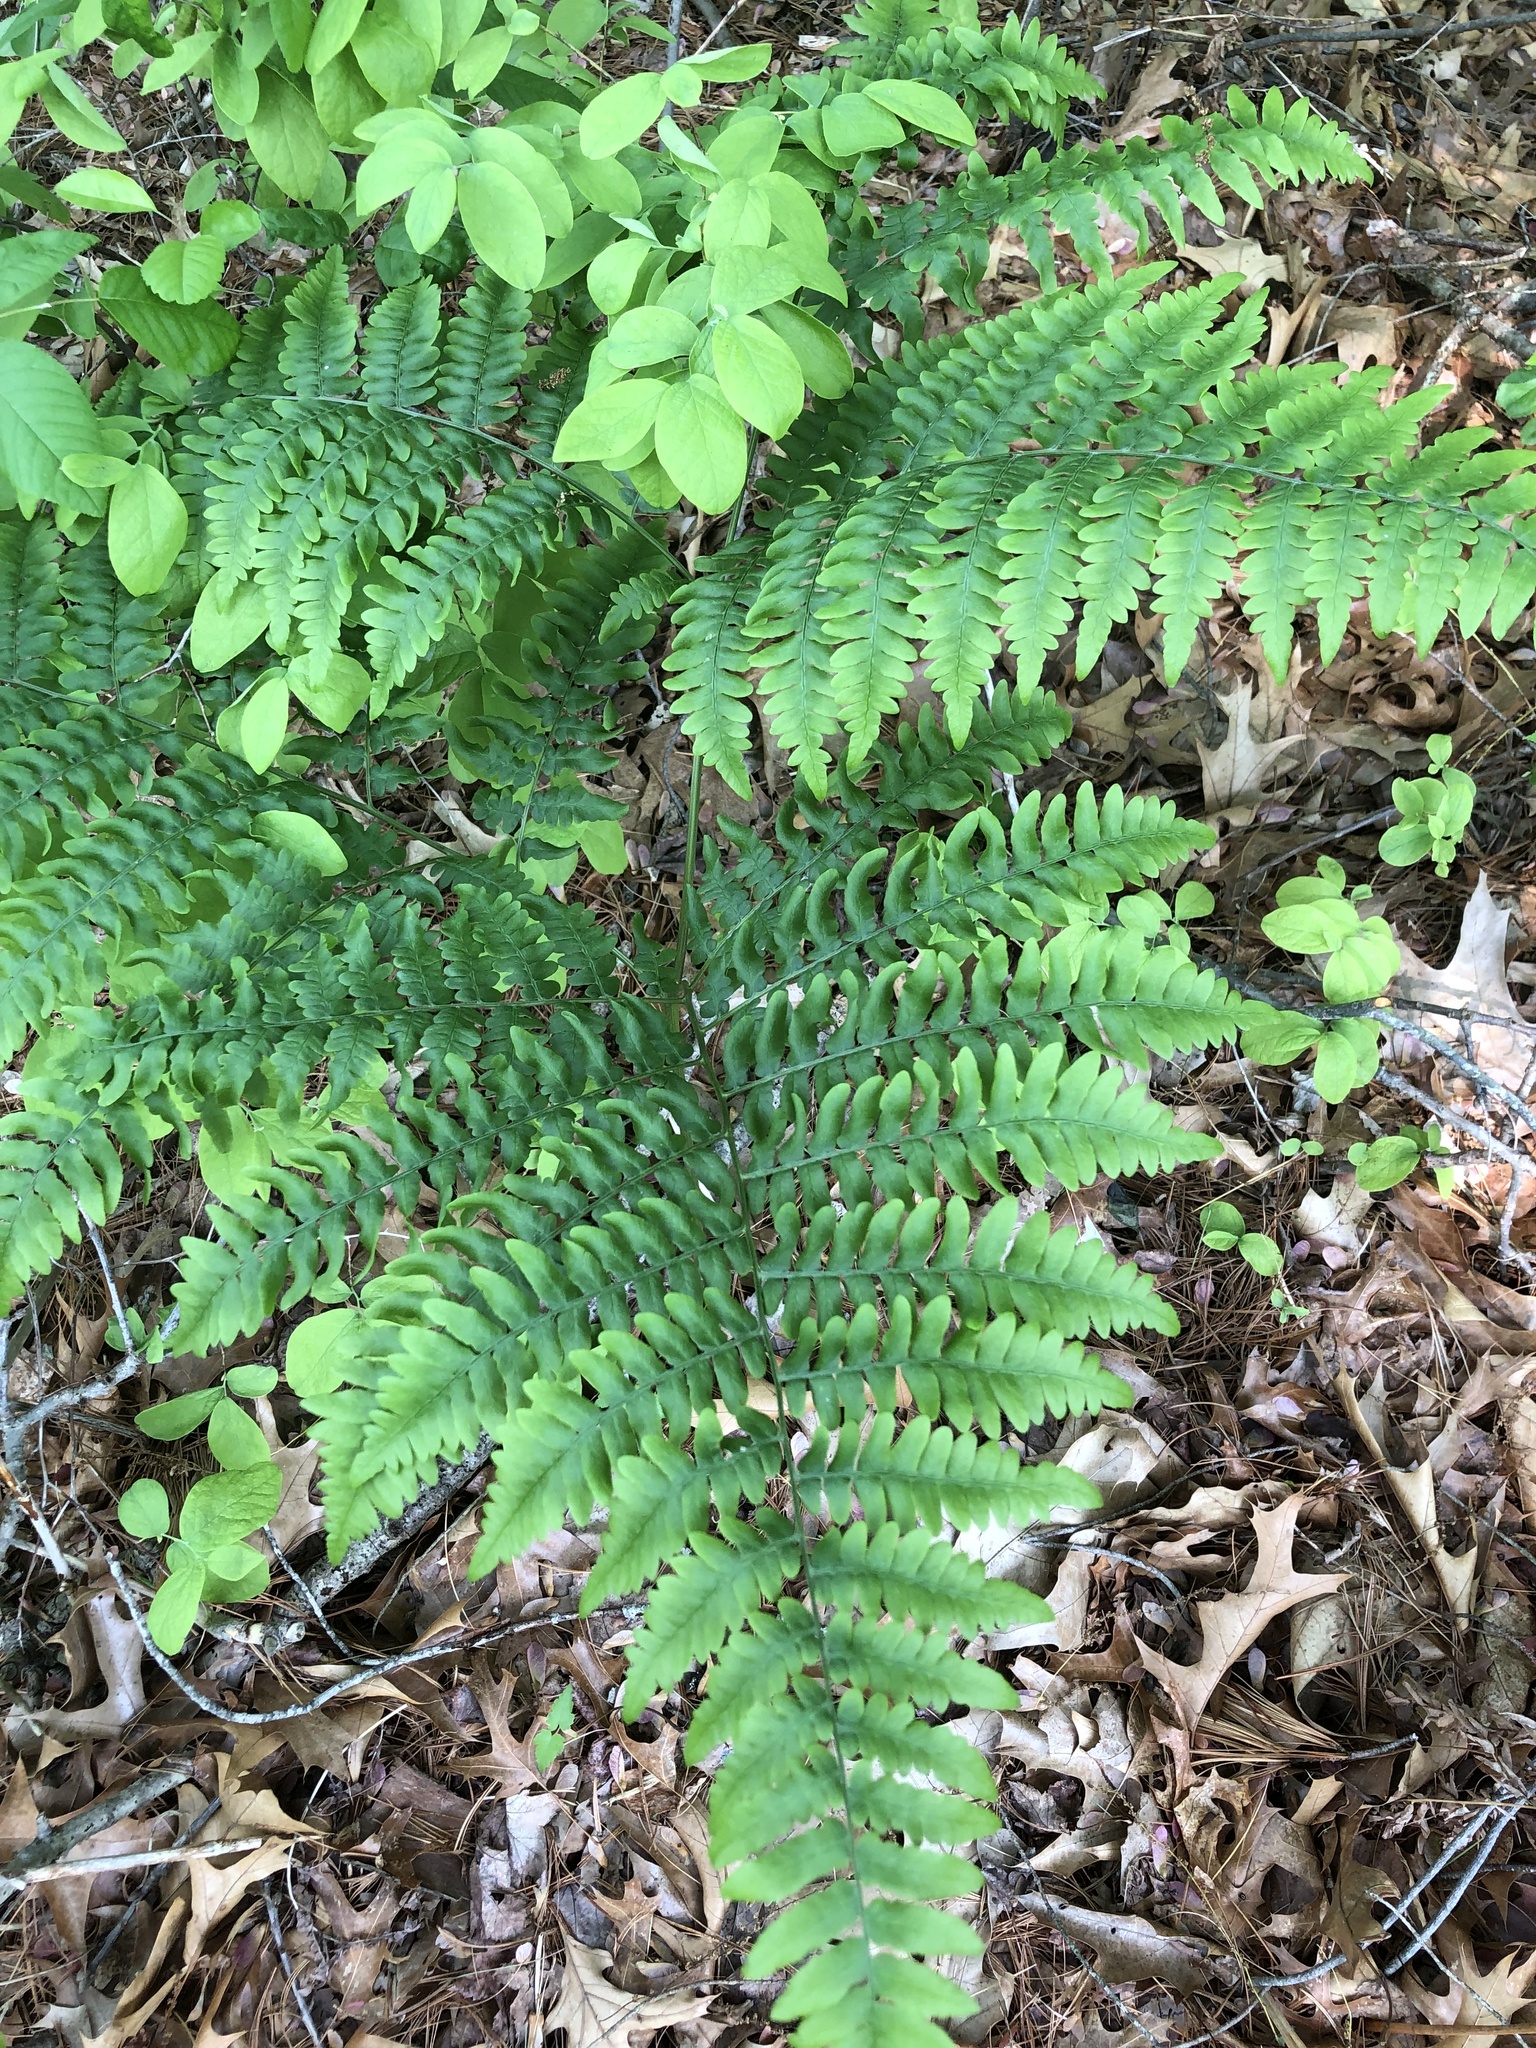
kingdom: Plantae
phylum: Tracheophyta
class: Polypodiopsida
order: Polypodiales
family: Dennstaedtiaceae
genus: Pteridium
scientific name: Pteridium aquilinum
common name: Bracken
